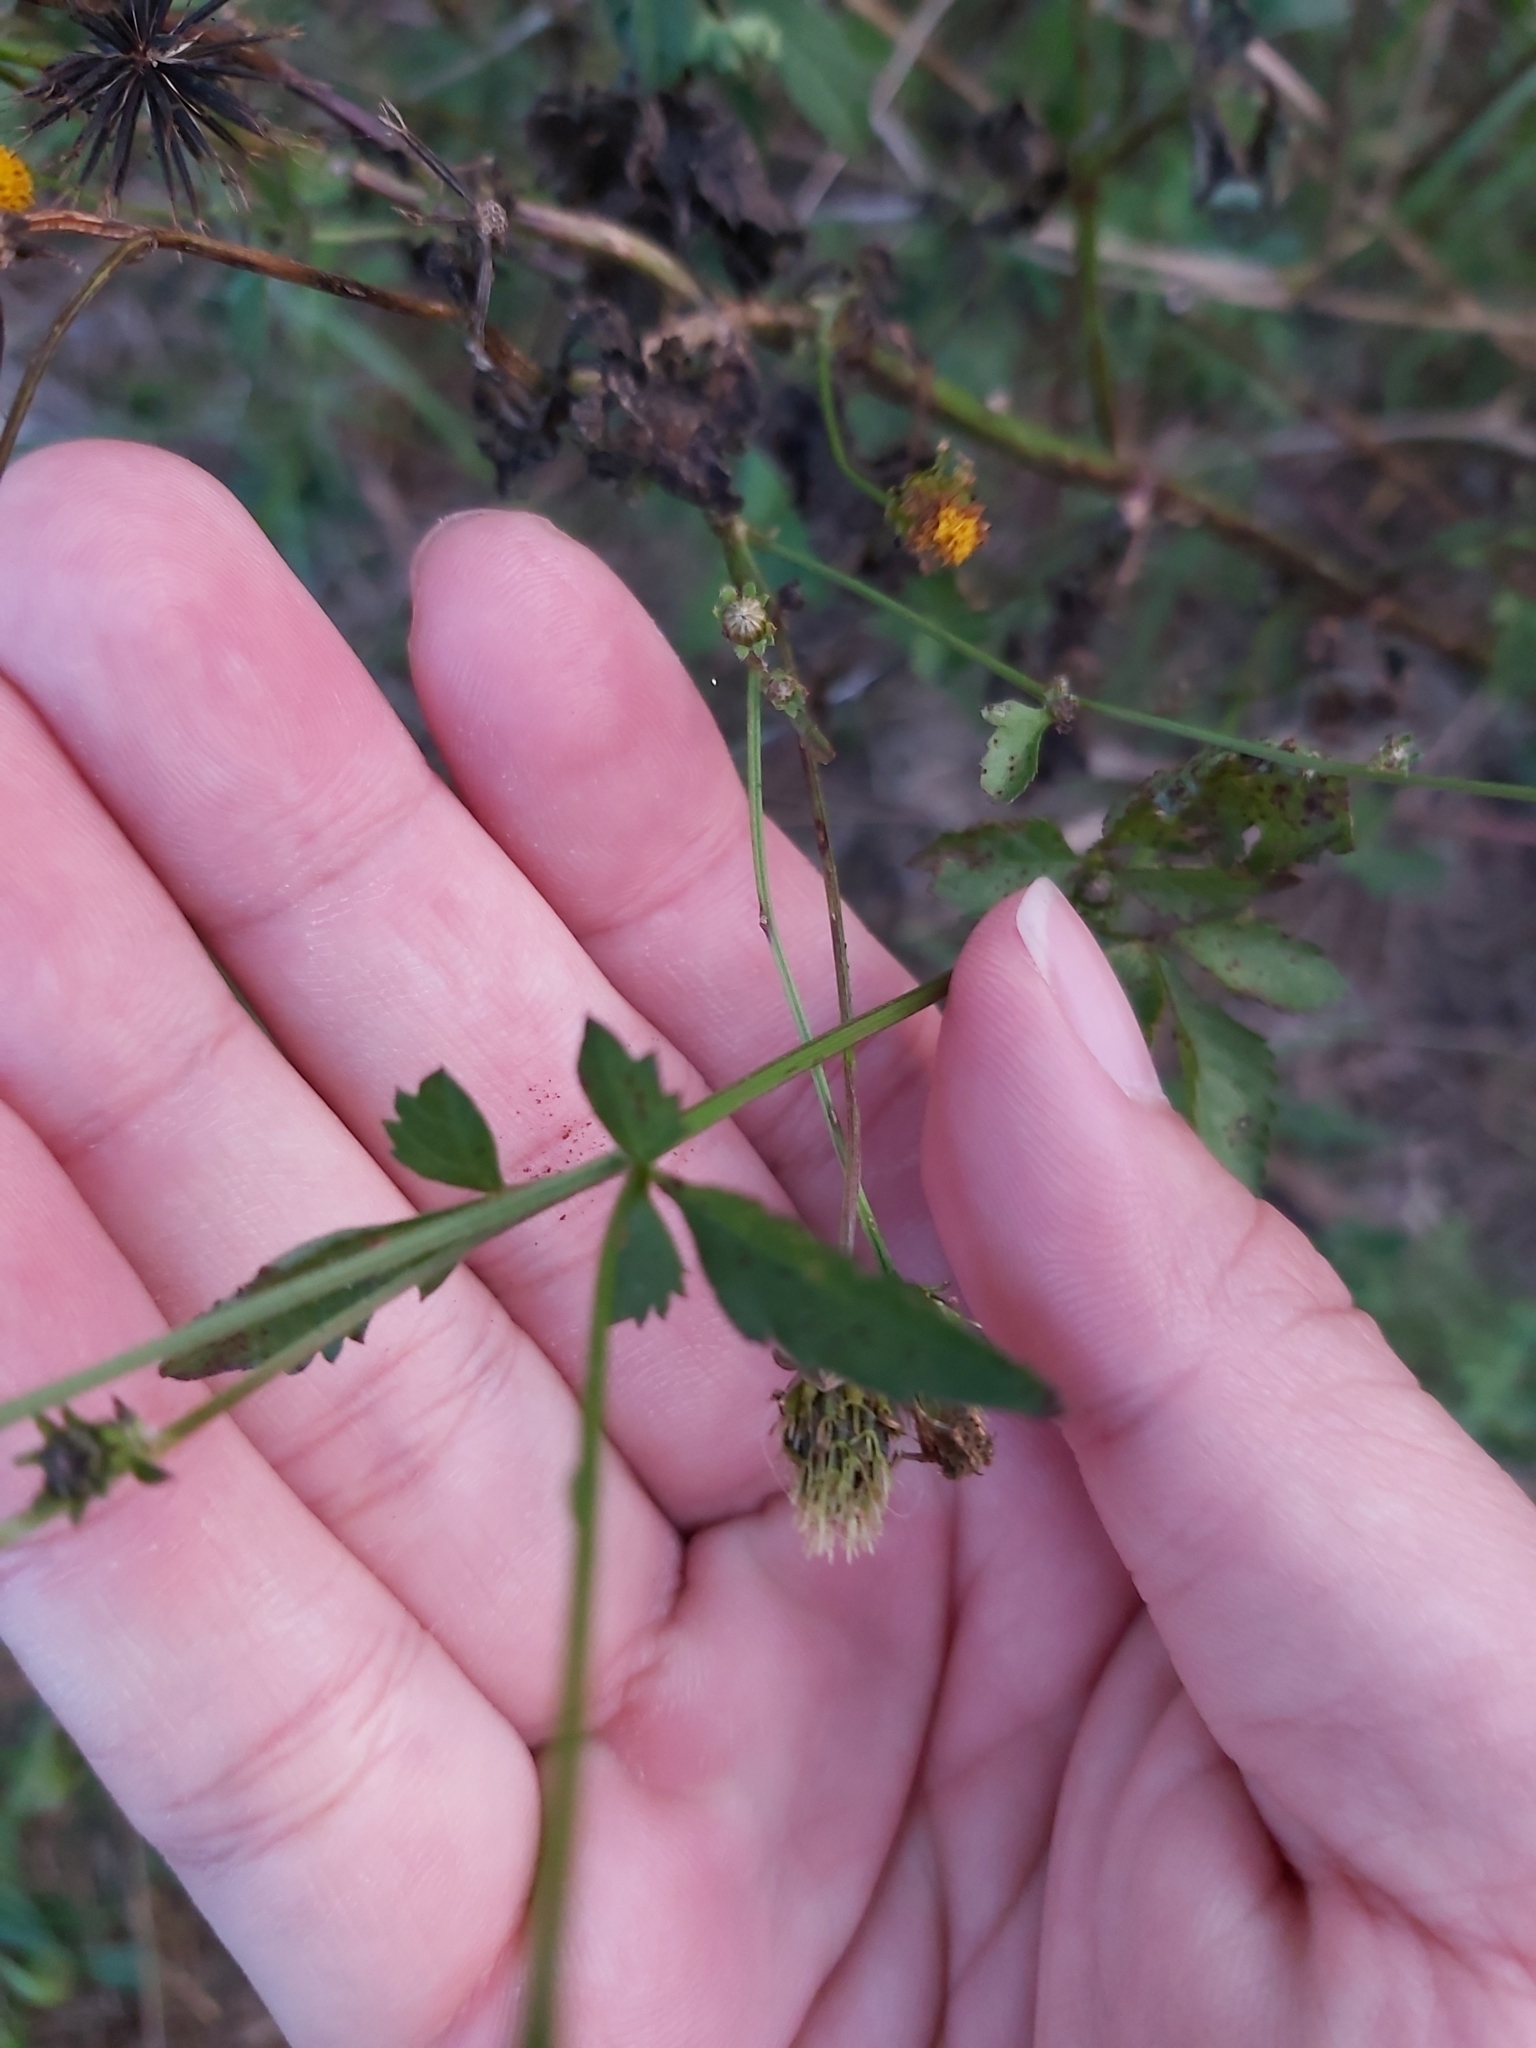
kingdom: Plantae
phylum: Tracheophyta
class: Magnoliopsida
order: Asterales
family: Asteraceae
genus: Bidens
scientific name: Bidens pilosa
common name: Black-jack
